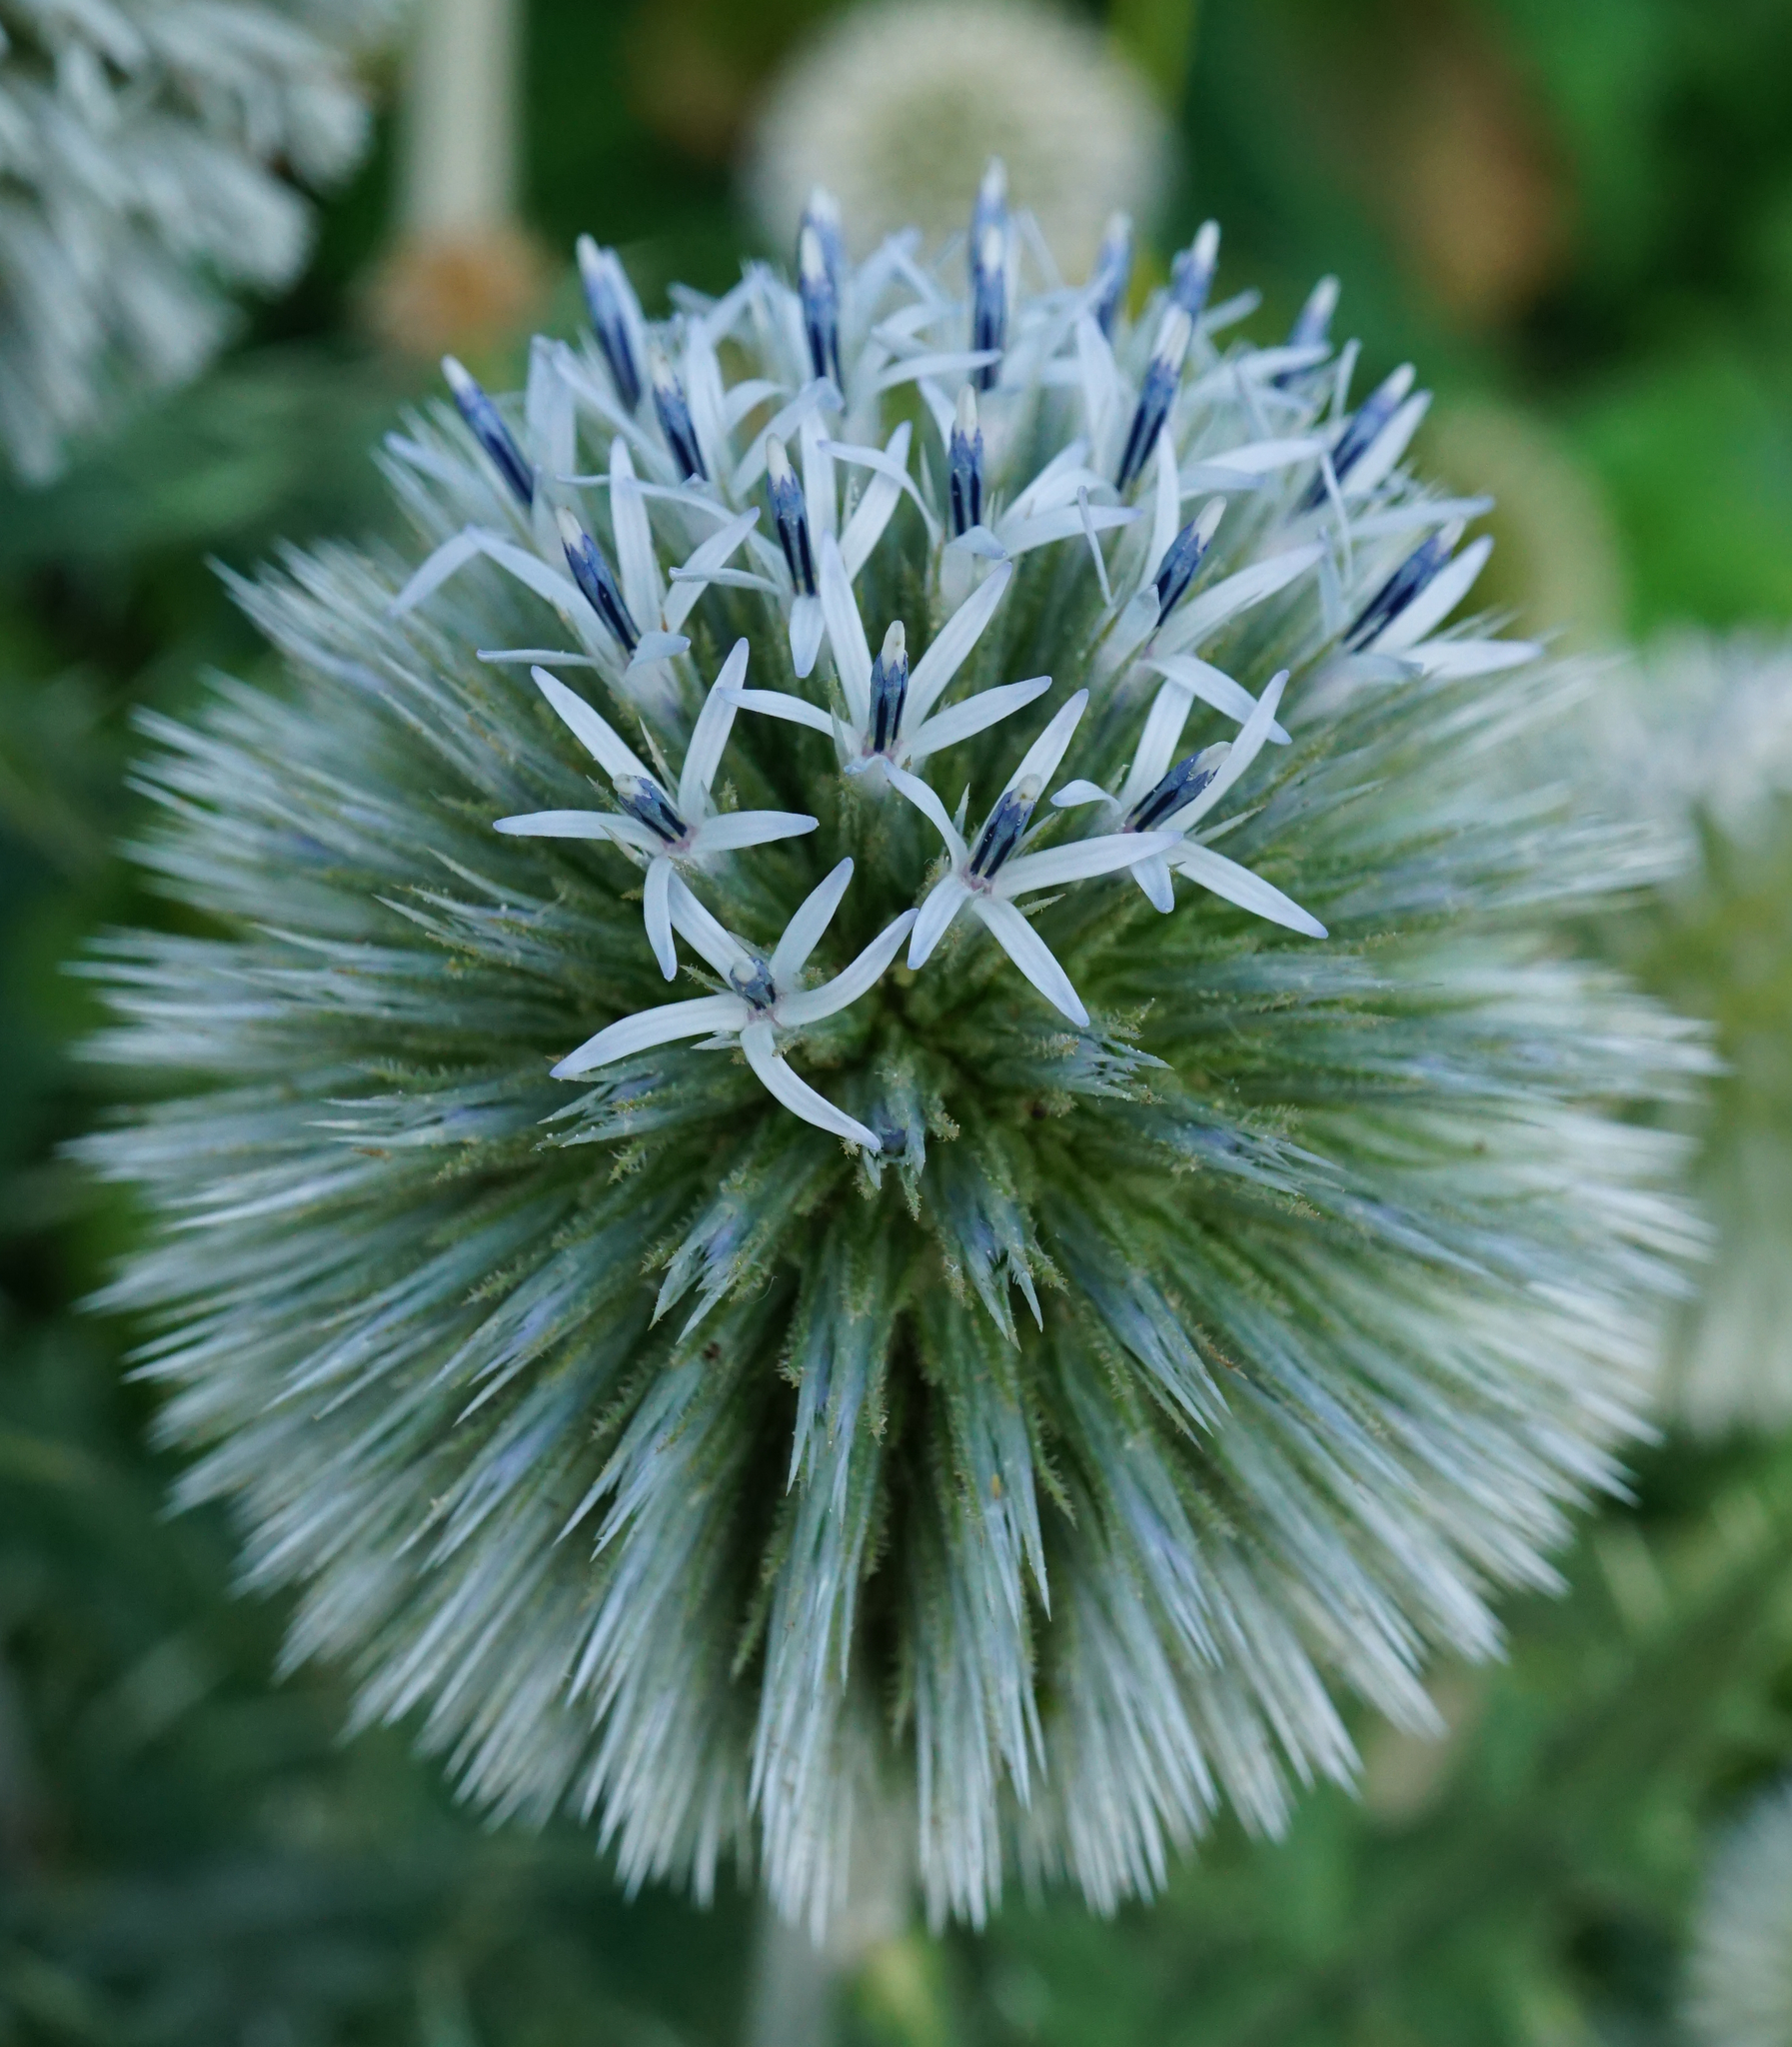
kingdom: Plantae
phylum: Tracheophyta
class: Magnoliopsida
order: Asterales
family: Asteraceae
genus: Echinops
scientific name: Echinops sphaerocephalus
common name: Glandular globe-thistle
